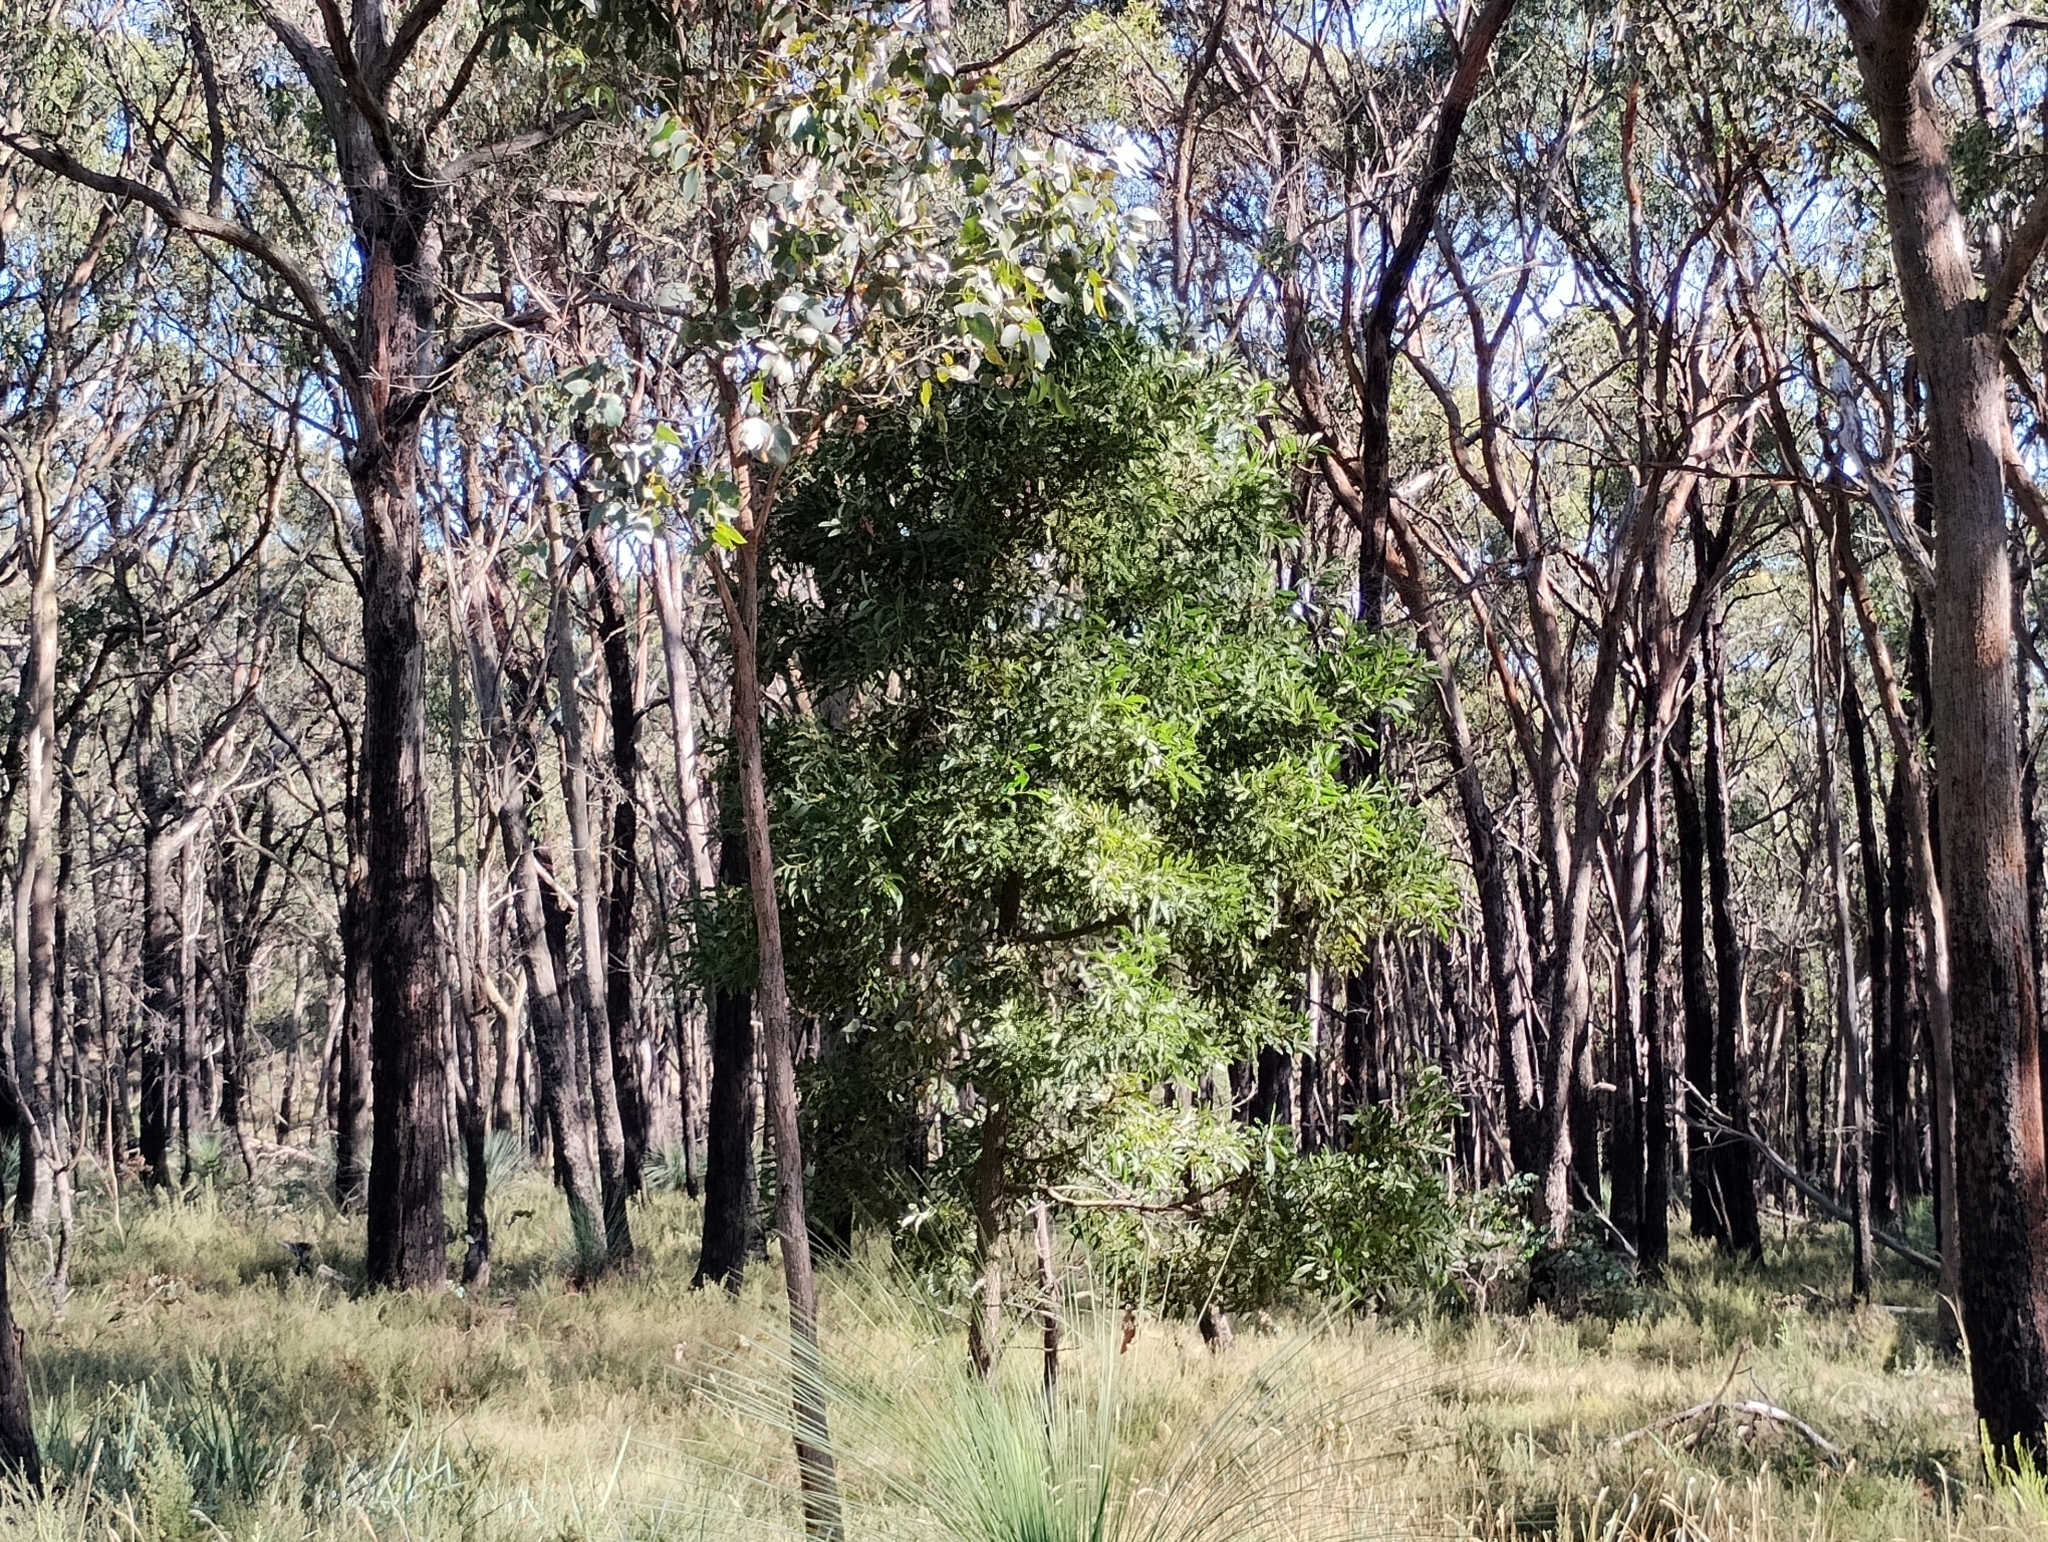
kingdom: Plantae
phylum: Tracheophyta
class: Magnoliopsida
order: Fabales
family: Fabaceae
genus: Acacia
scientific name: Acacia melanoxylon
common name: Blackwood
